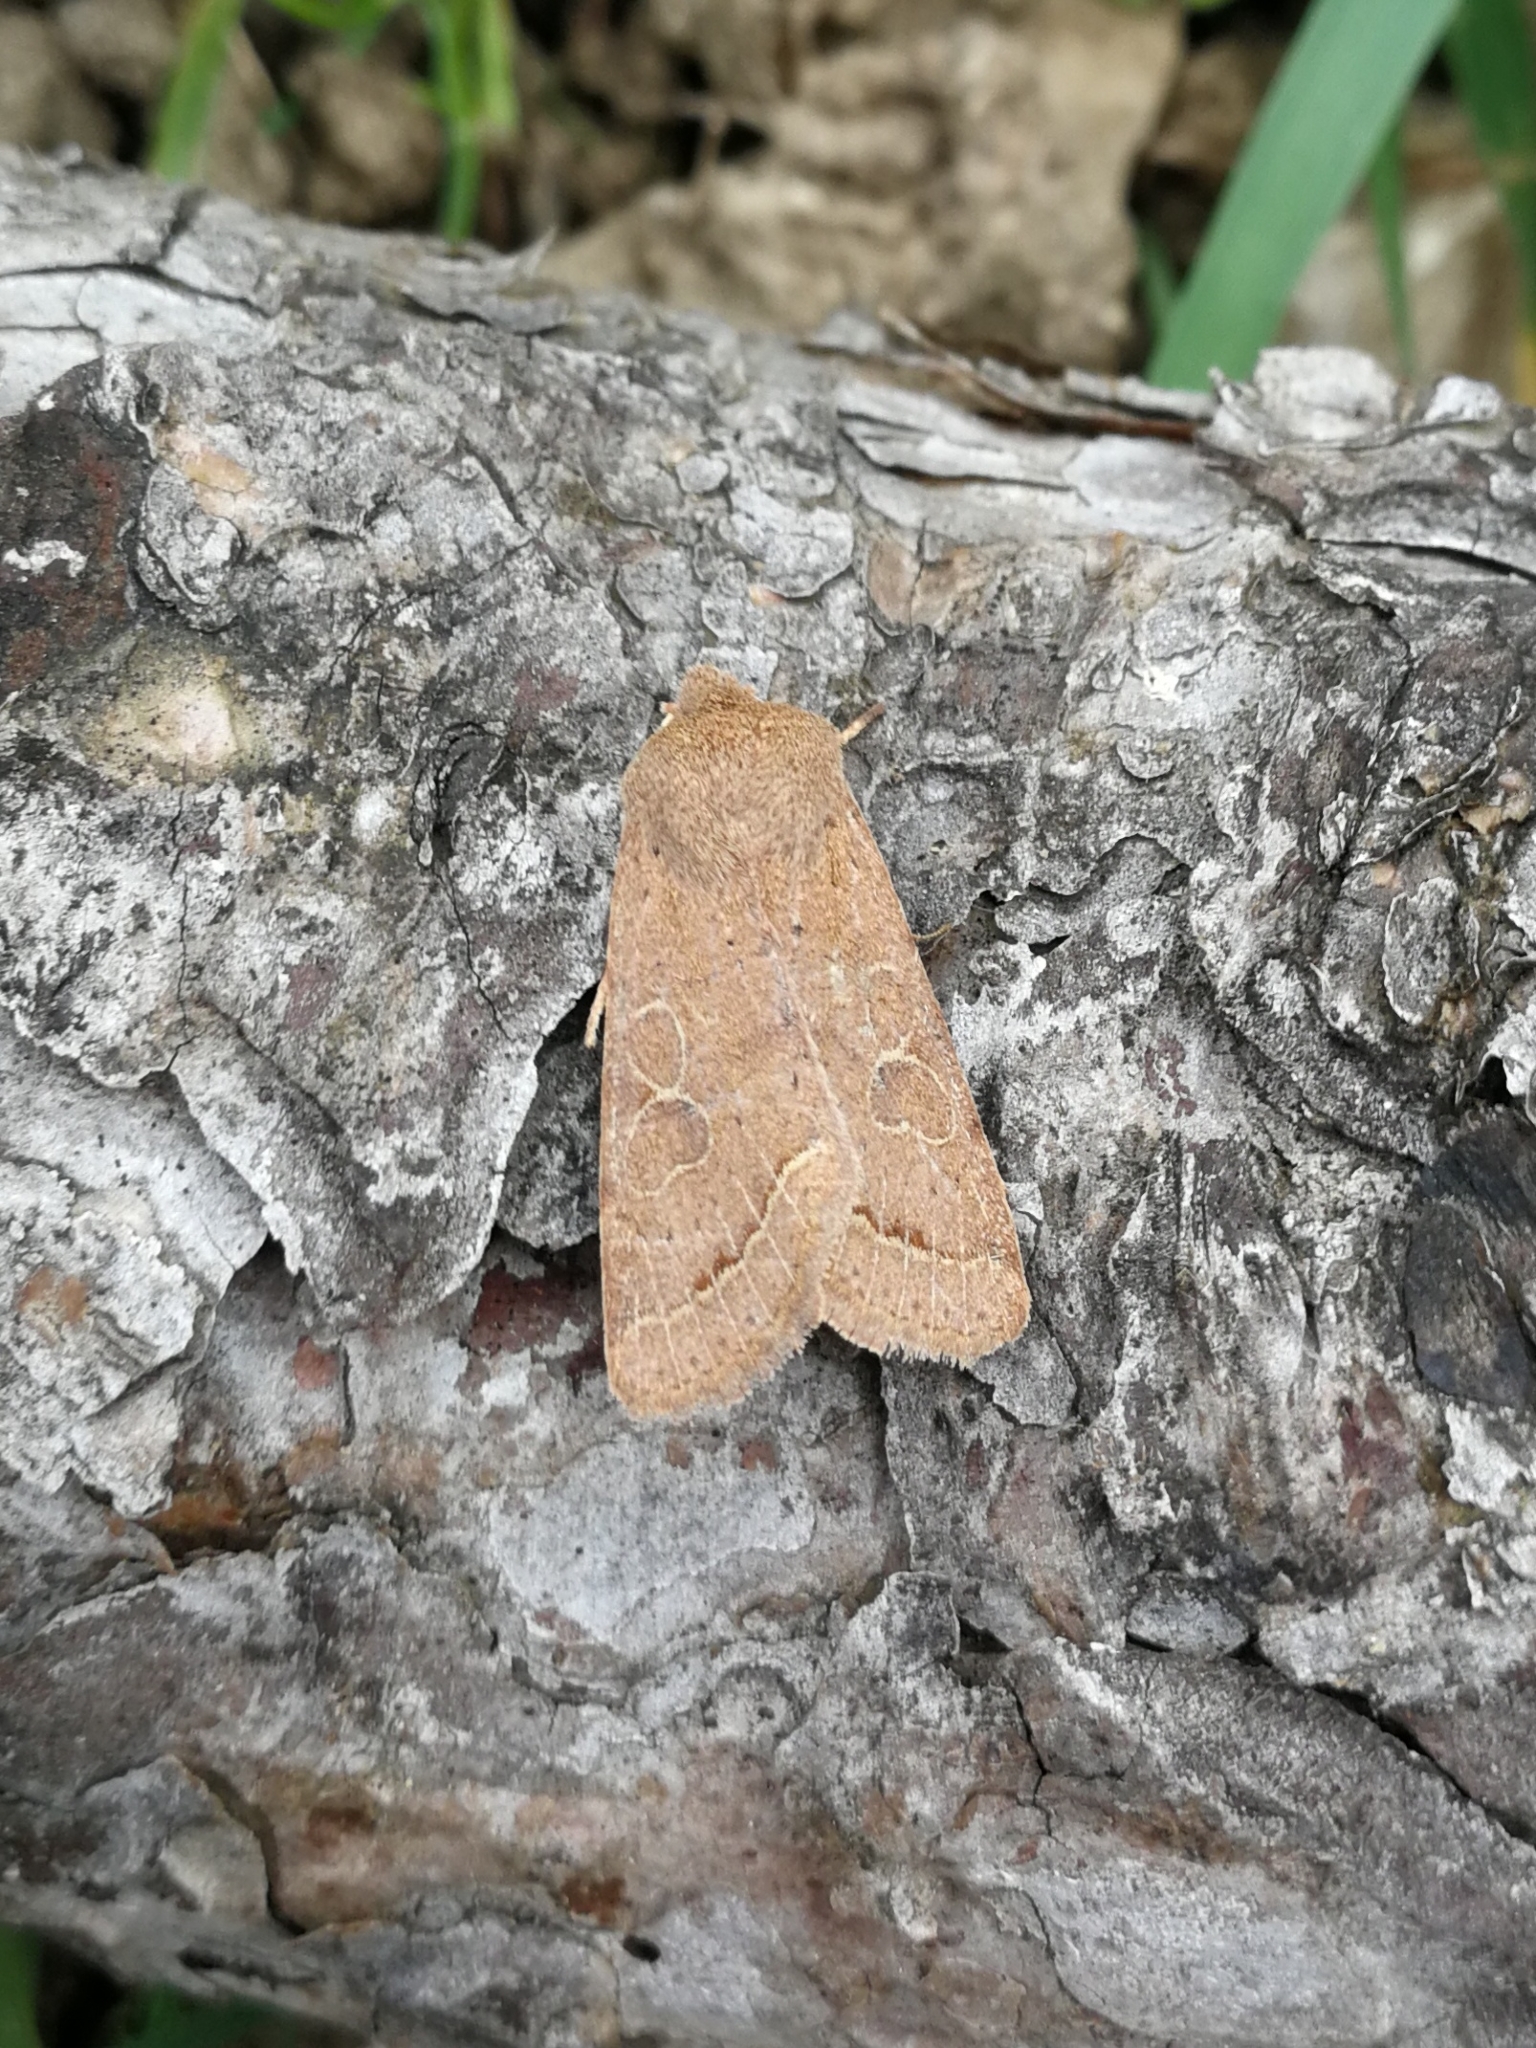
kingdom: Animalia
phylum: Arthropoda
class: Insecta
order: Lepidoptera
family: Noctuidae
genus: Orthosia
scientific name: Orthosia cerasi
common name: Common quaker
